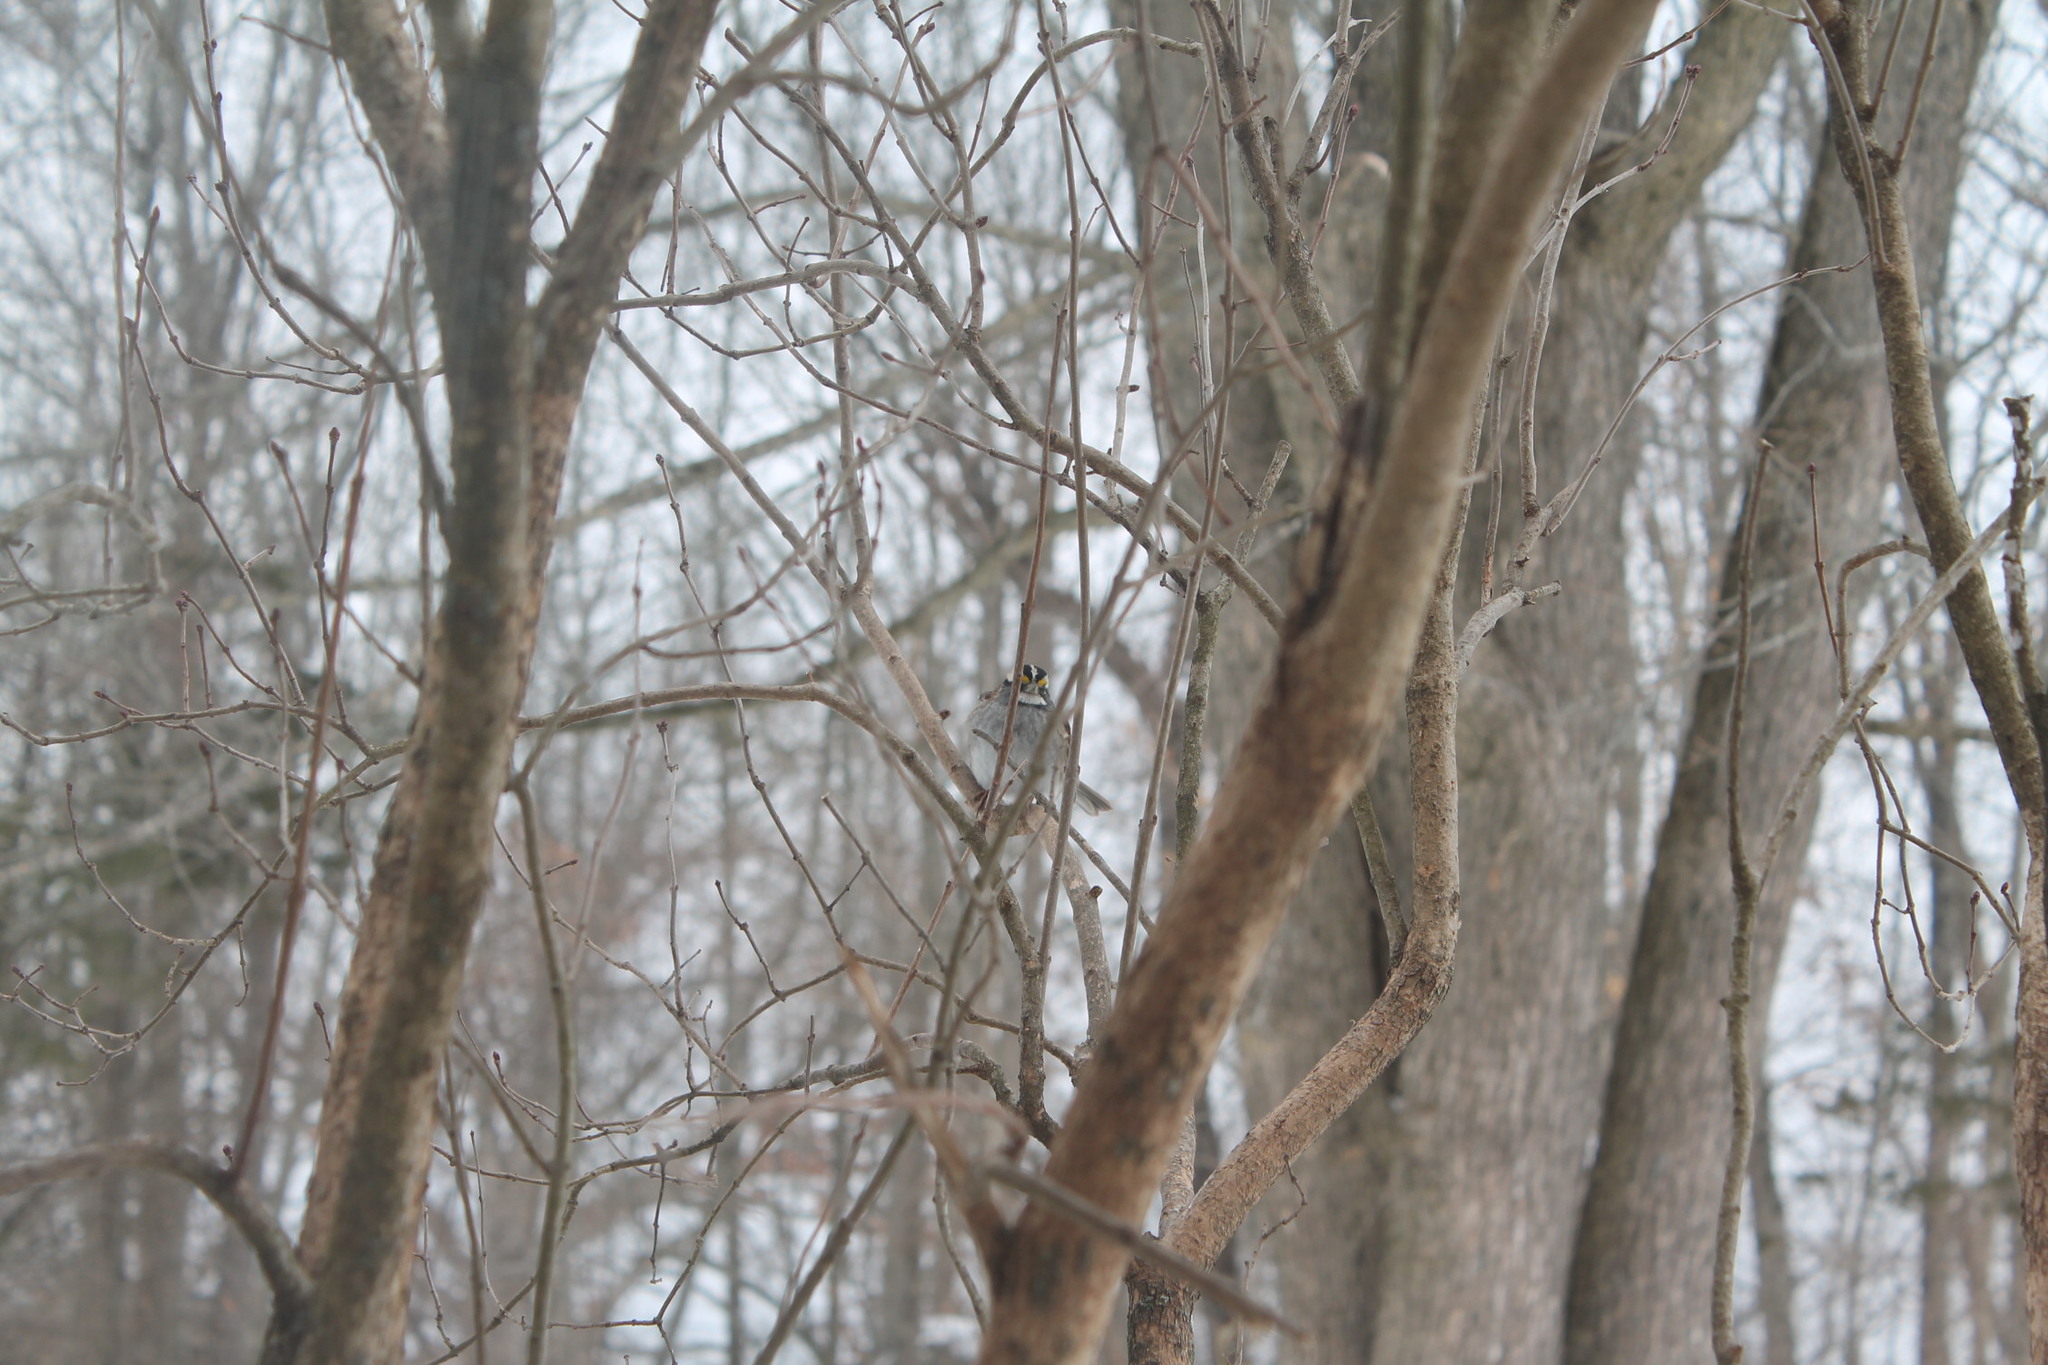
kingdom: Animalia
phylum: Chordata
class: Aves
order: Passeriformes
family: Passerellidae
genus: Zonotrichia
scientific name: Zonotrichia albicollis
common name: White-throated sparrow
